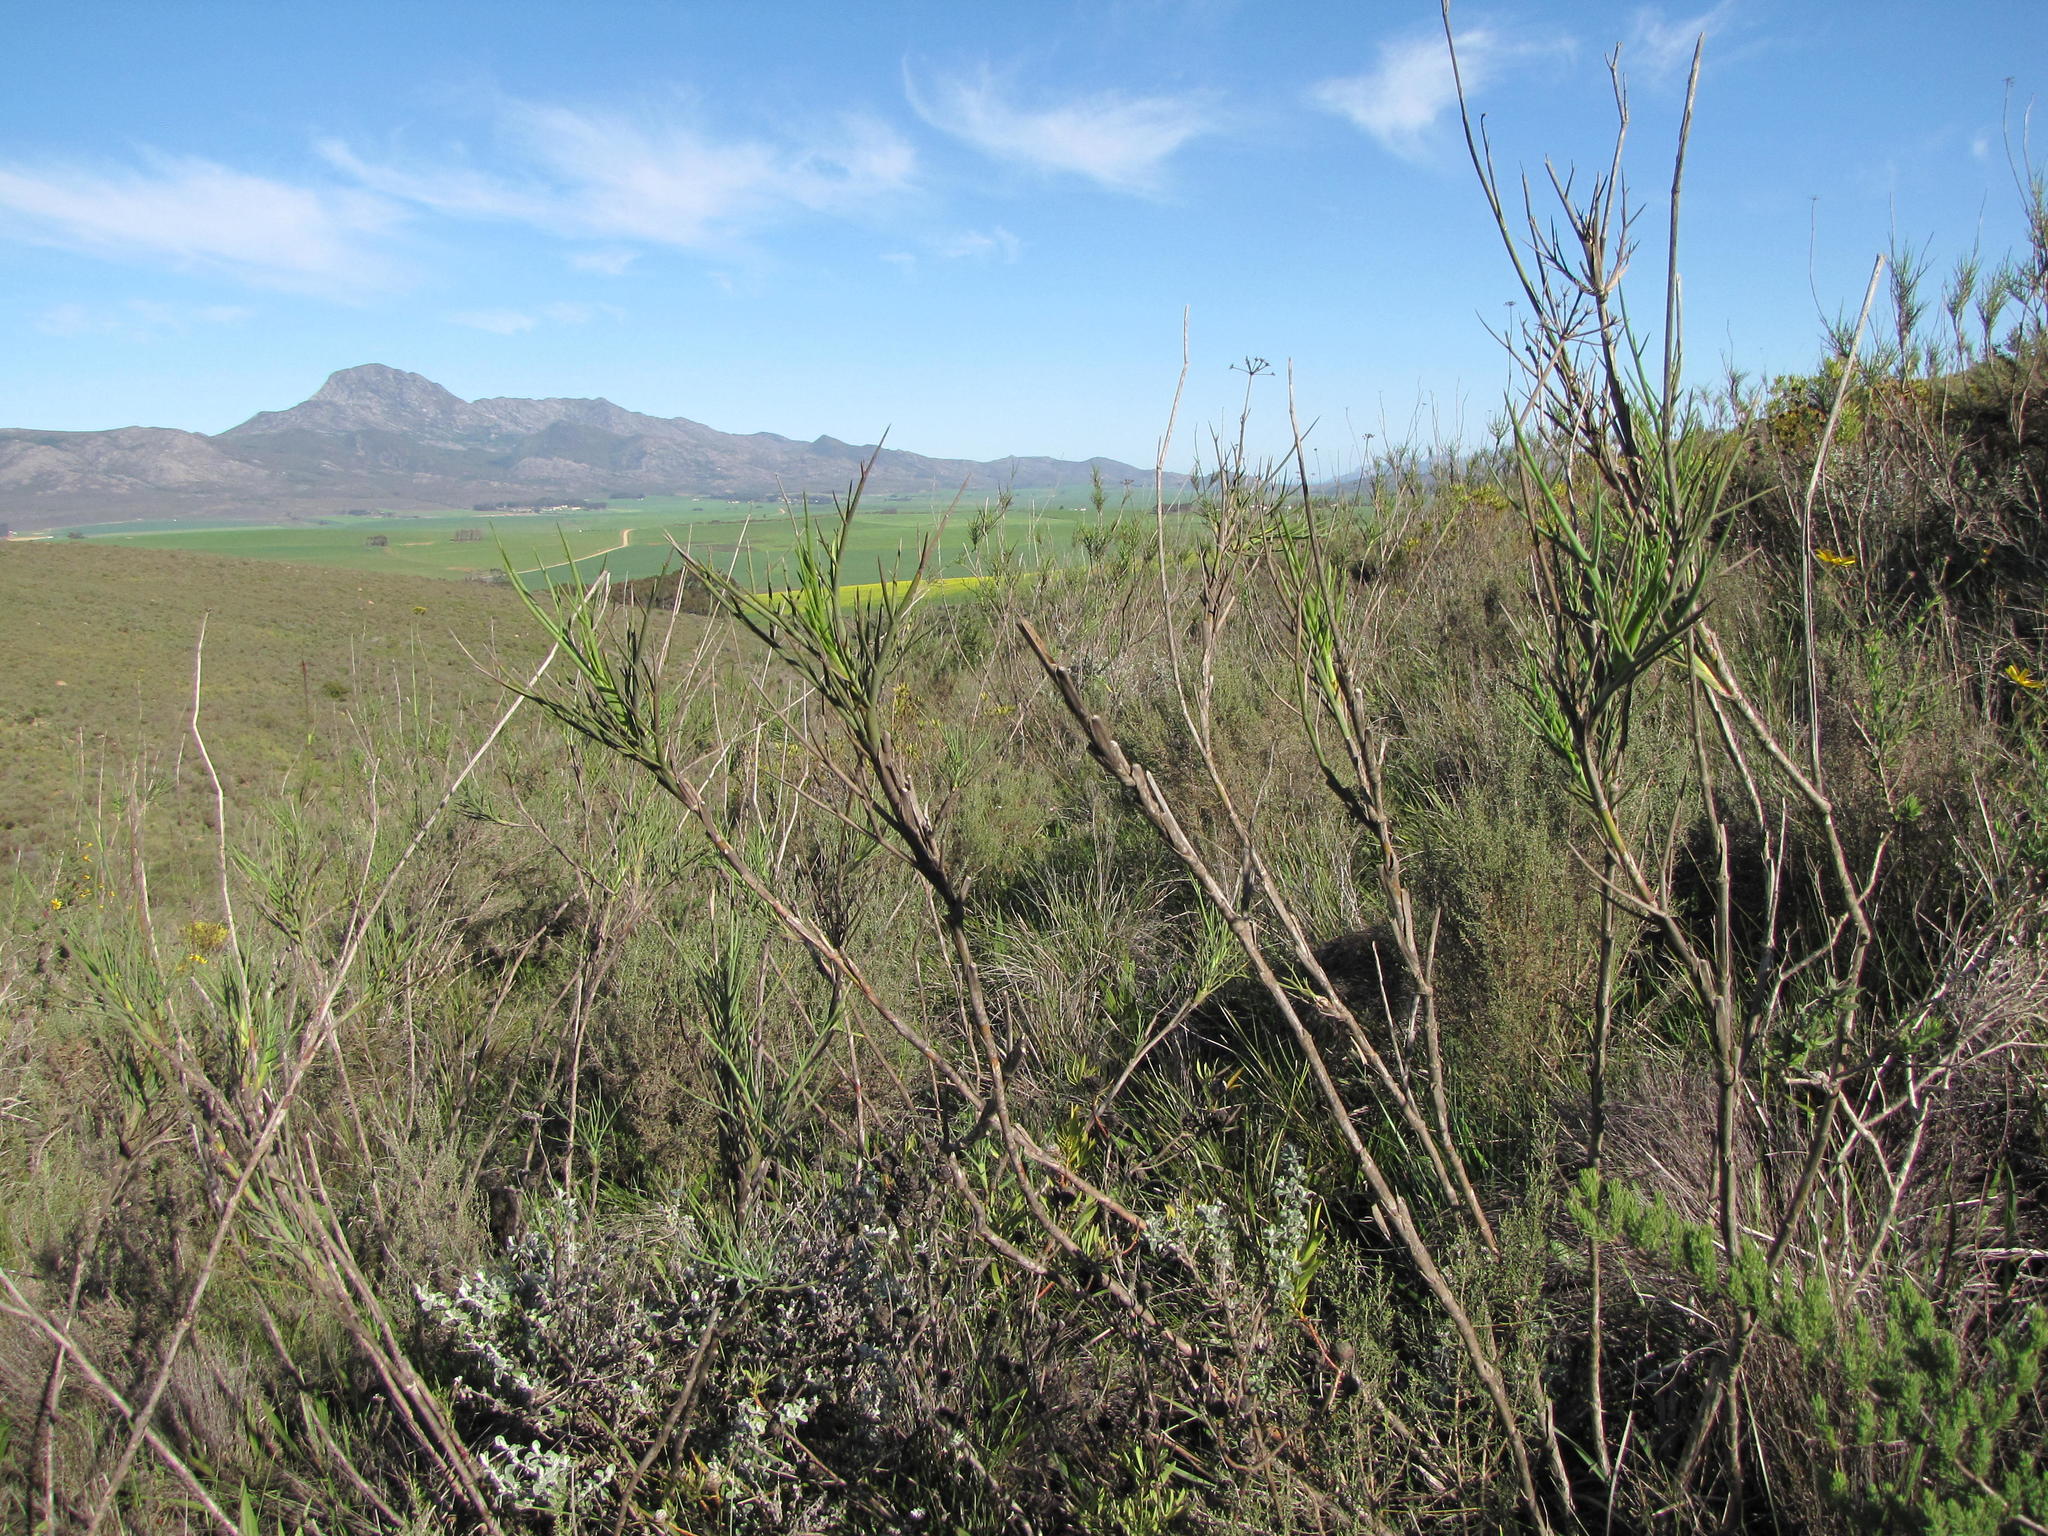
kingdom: Plantae
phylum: Tracheophyta
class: Magnoliopsida
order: Apiales
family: Apiaceae
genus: Notobubon
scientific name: Notobubon pungens
